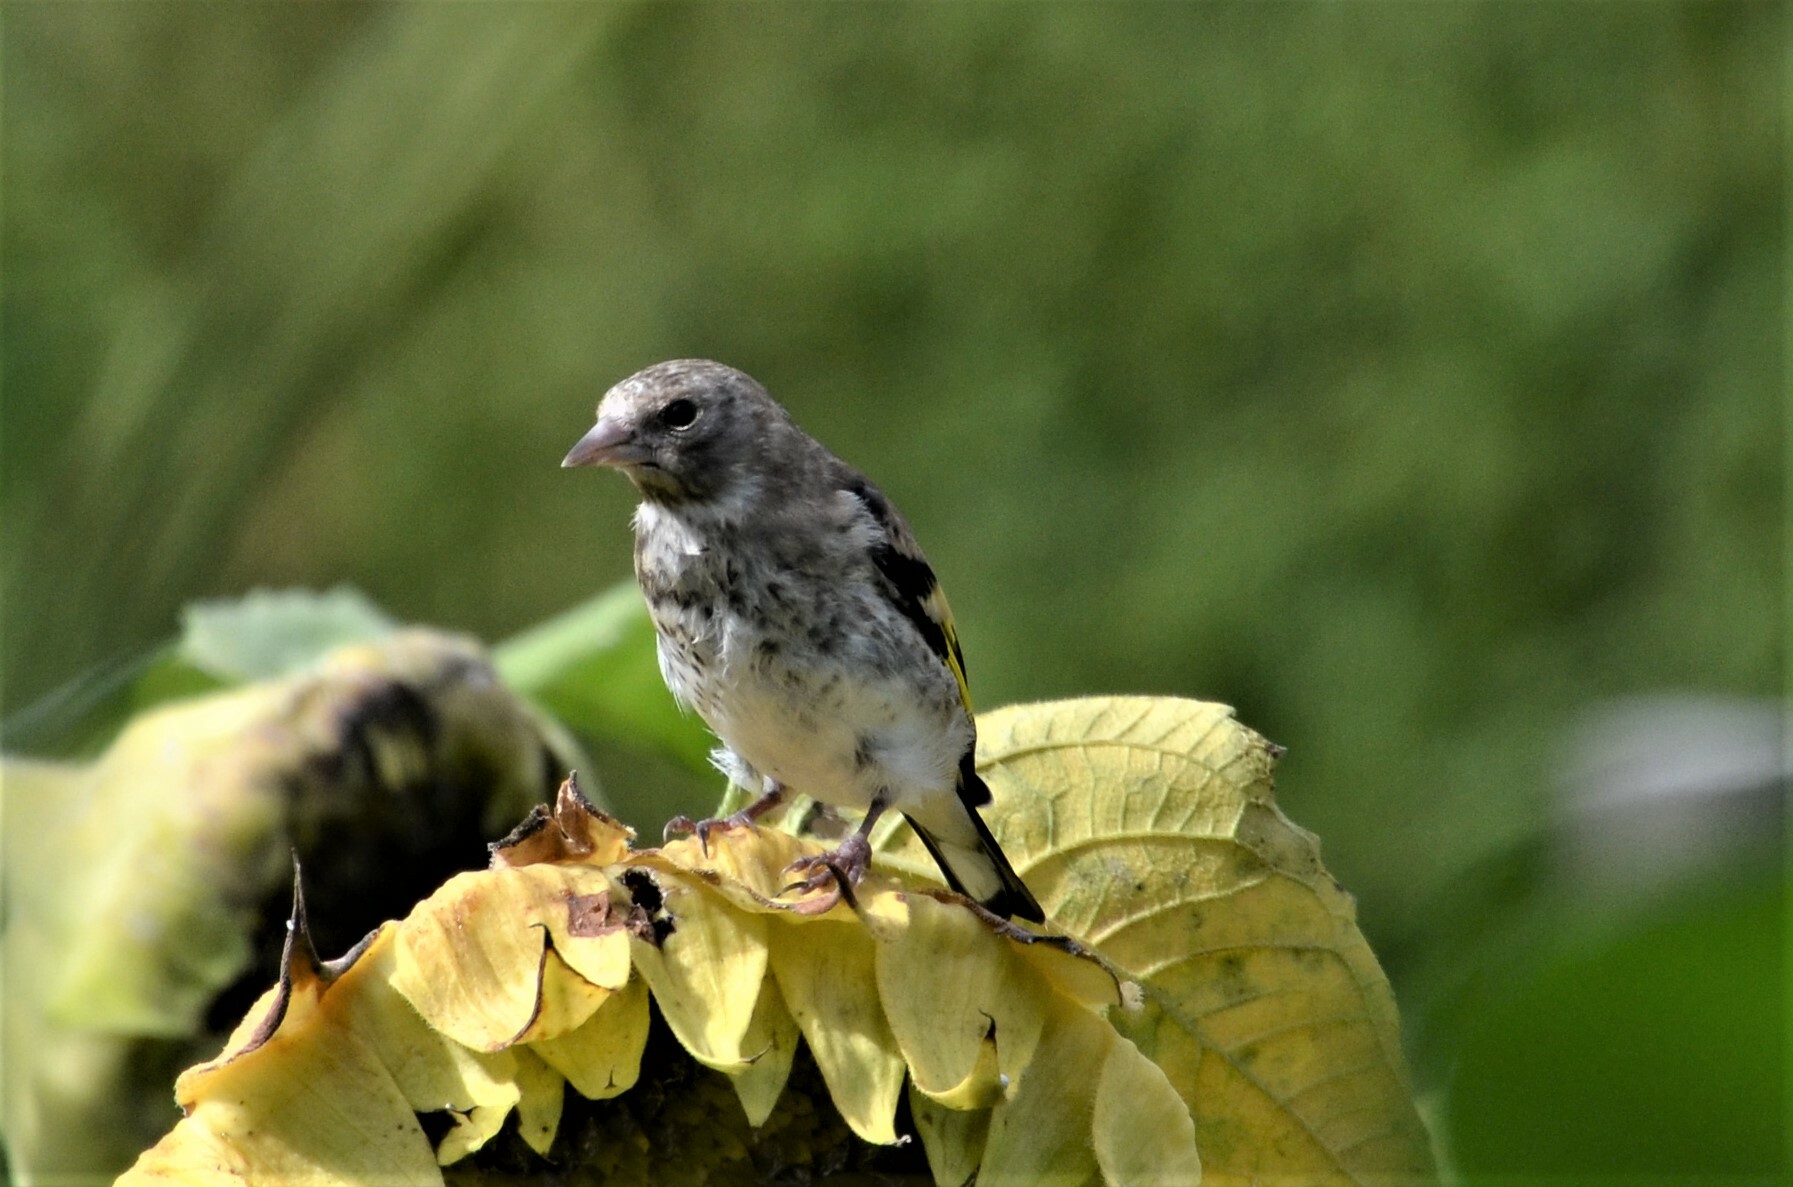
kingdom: Animalia
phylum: Chordata
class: Aves
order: Passeriformes
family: Fringillidae
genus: Carduelis
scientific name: Carduelis carduelis
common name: European goldfinch
